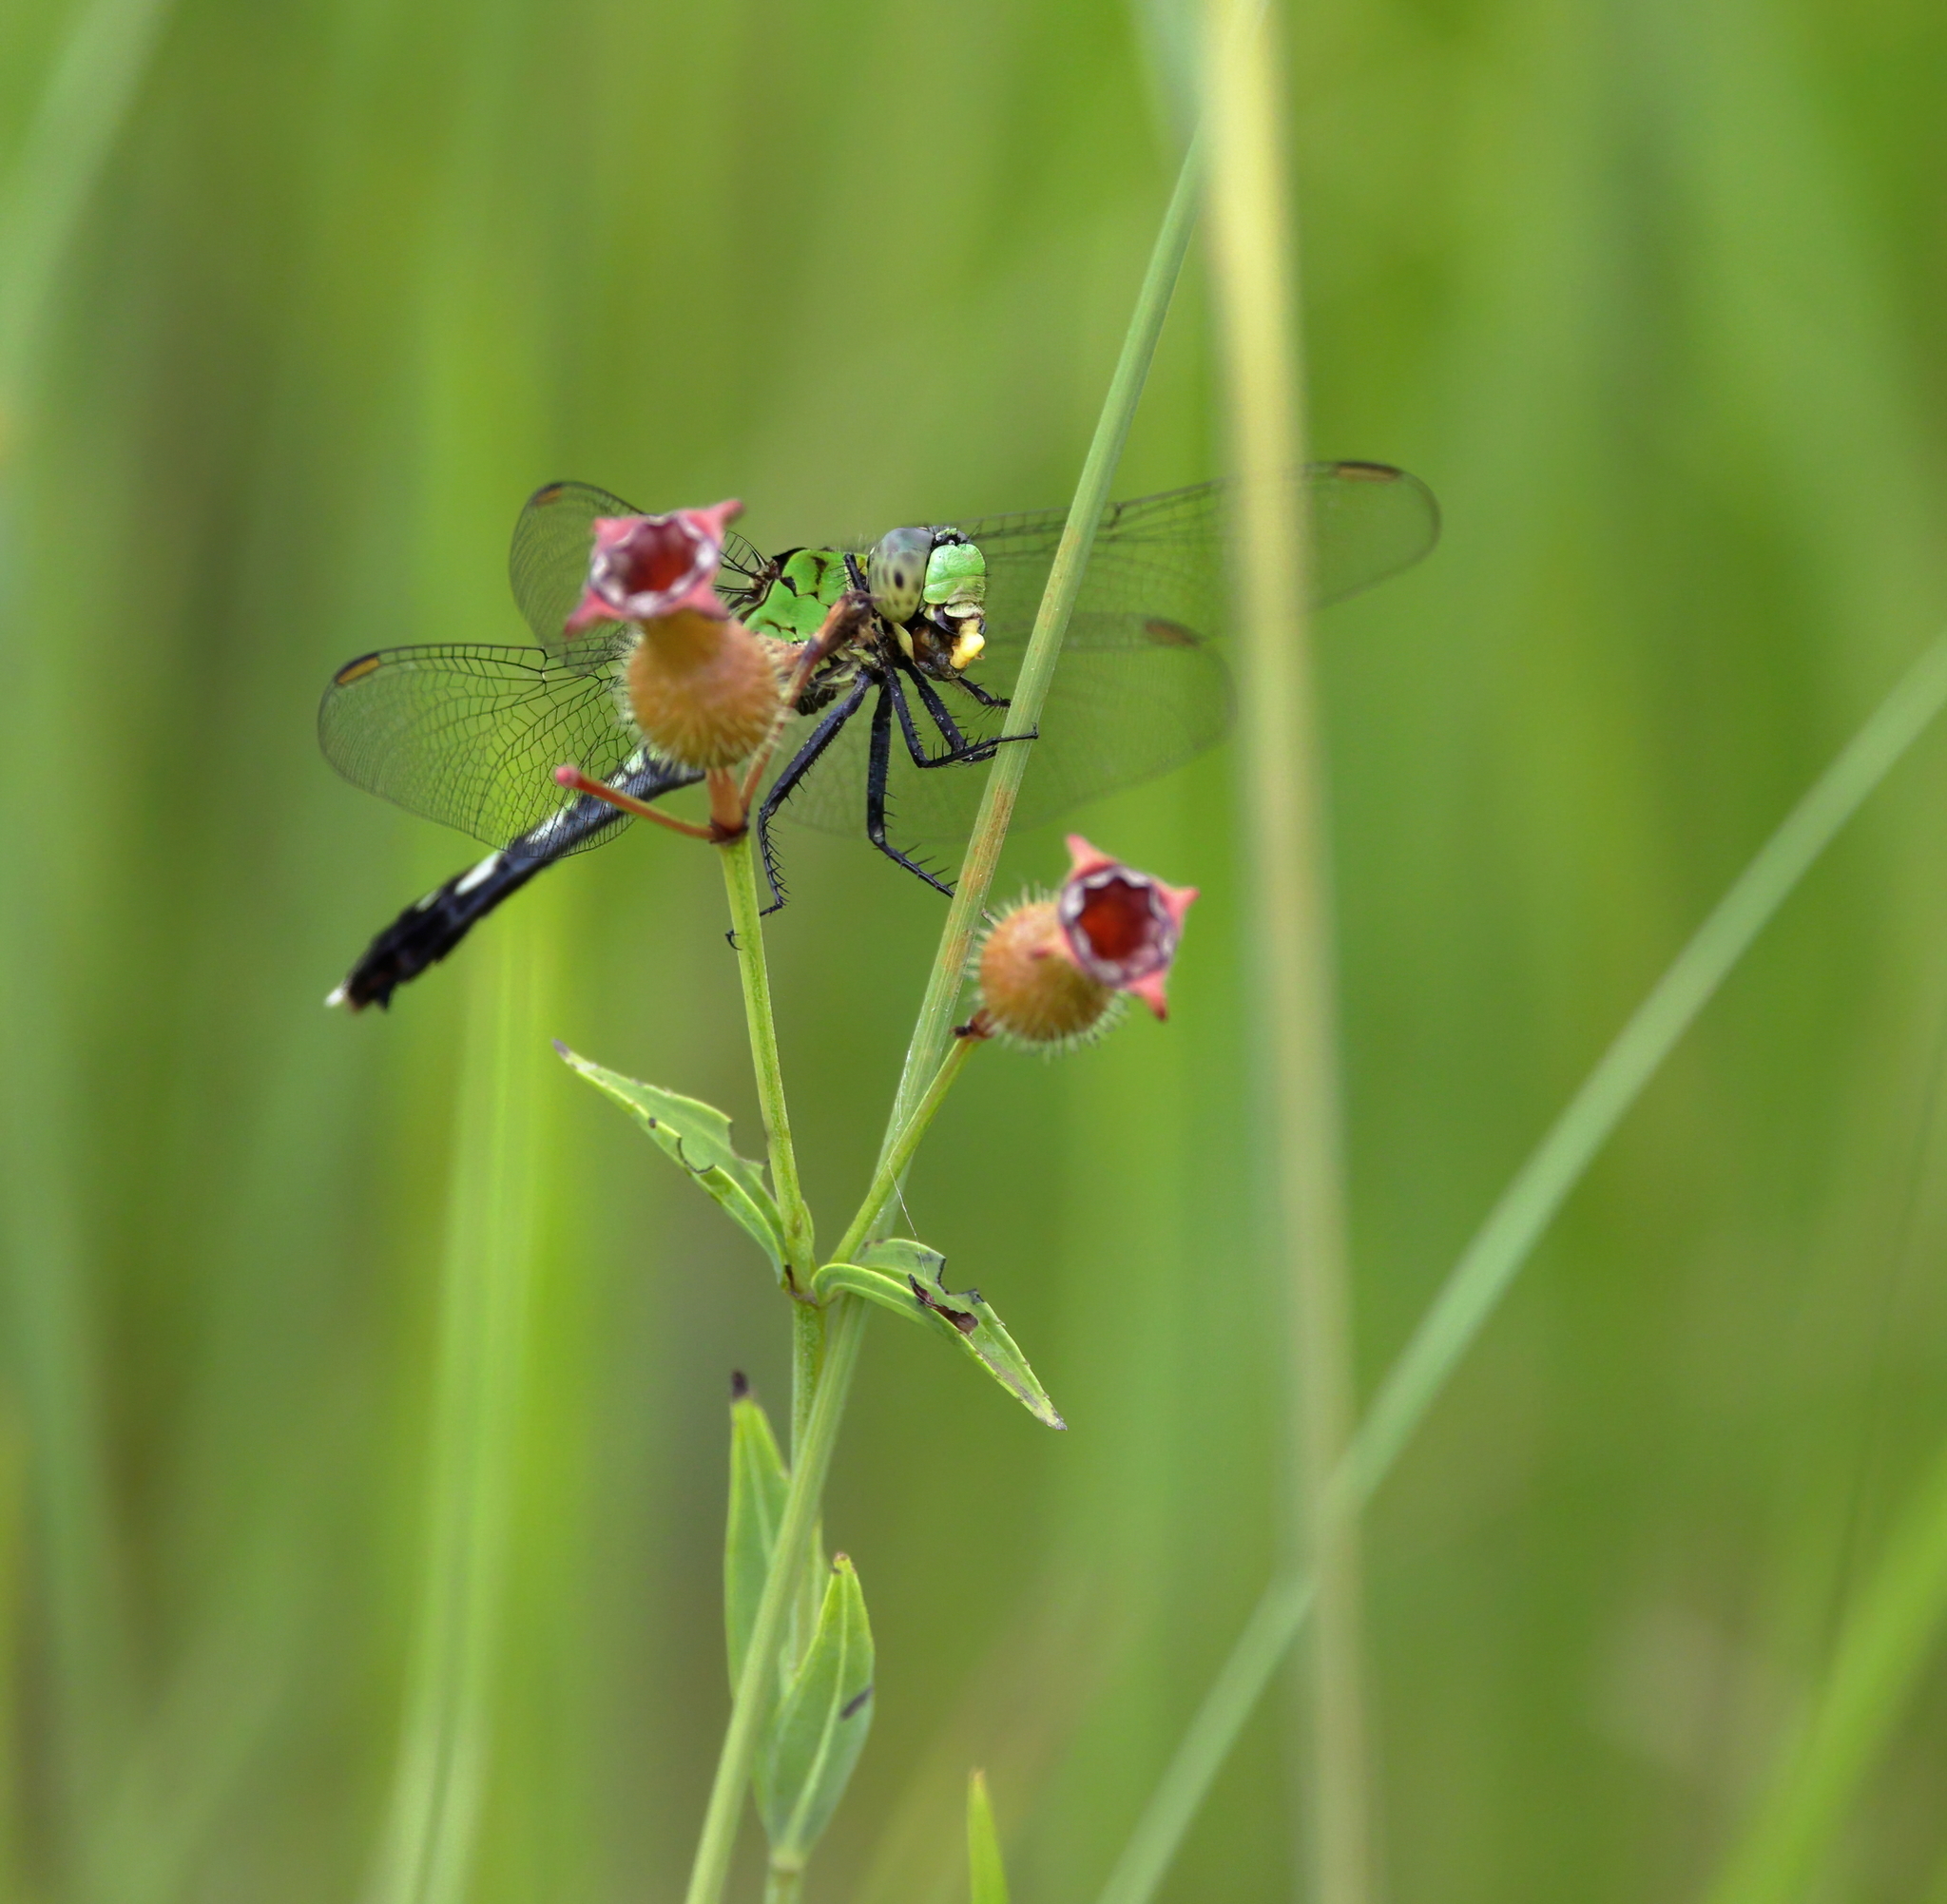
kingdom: Animalia
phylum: Arthropoda
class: Insecta
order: Odonata
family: Libellulidae
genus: Erythemis
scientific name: Erythemis simplicicollis
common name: Eastern pondhawk
